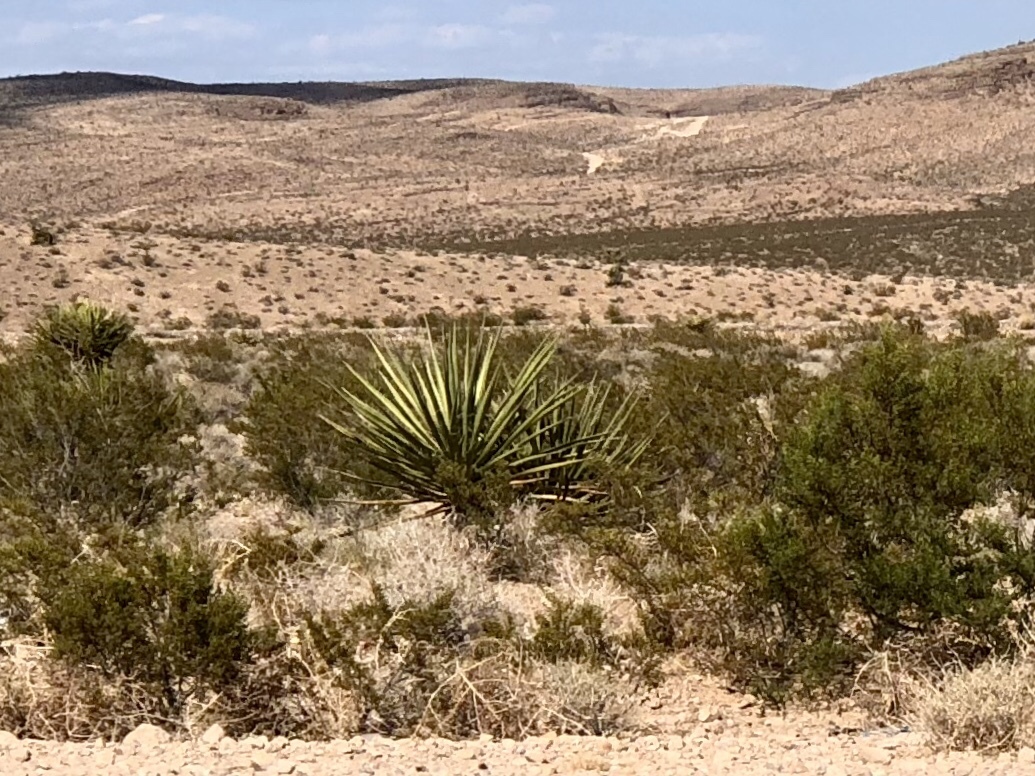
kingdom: Plantae
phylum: Tracheophyta
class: Liliopsida
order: Asparagales
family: Asparagaceae
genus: Yucca
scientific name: Yucca schidigera
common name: Mojave yucca
